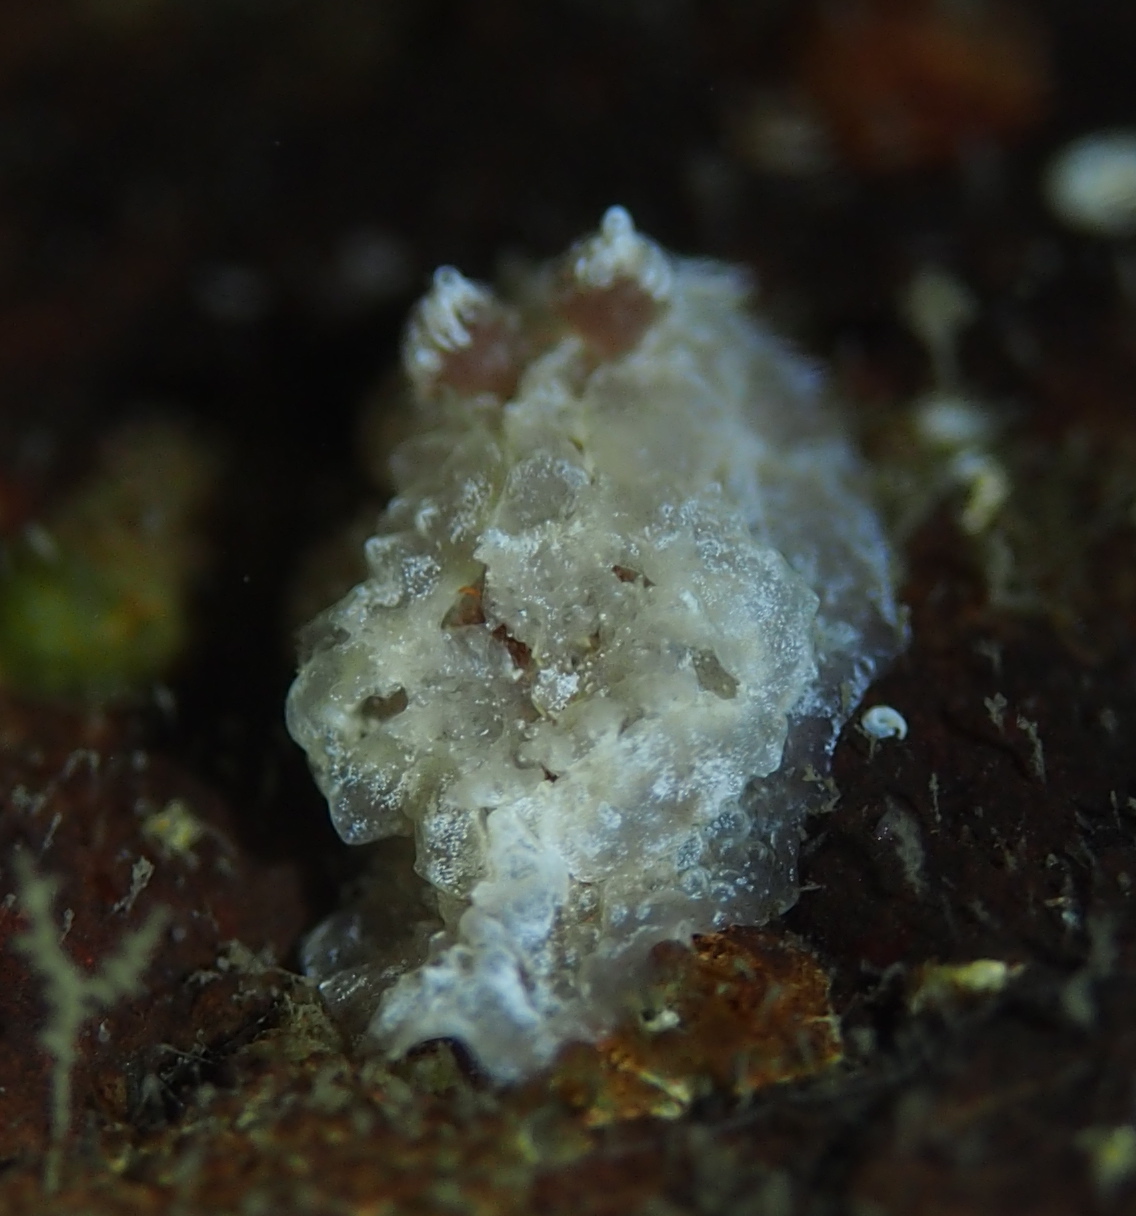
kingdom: Animalia
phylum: Mollusca
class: Gastropoda
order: Nudibranchia
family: Goniodorididae
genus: Pelagella
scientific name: Pelagella castanea
